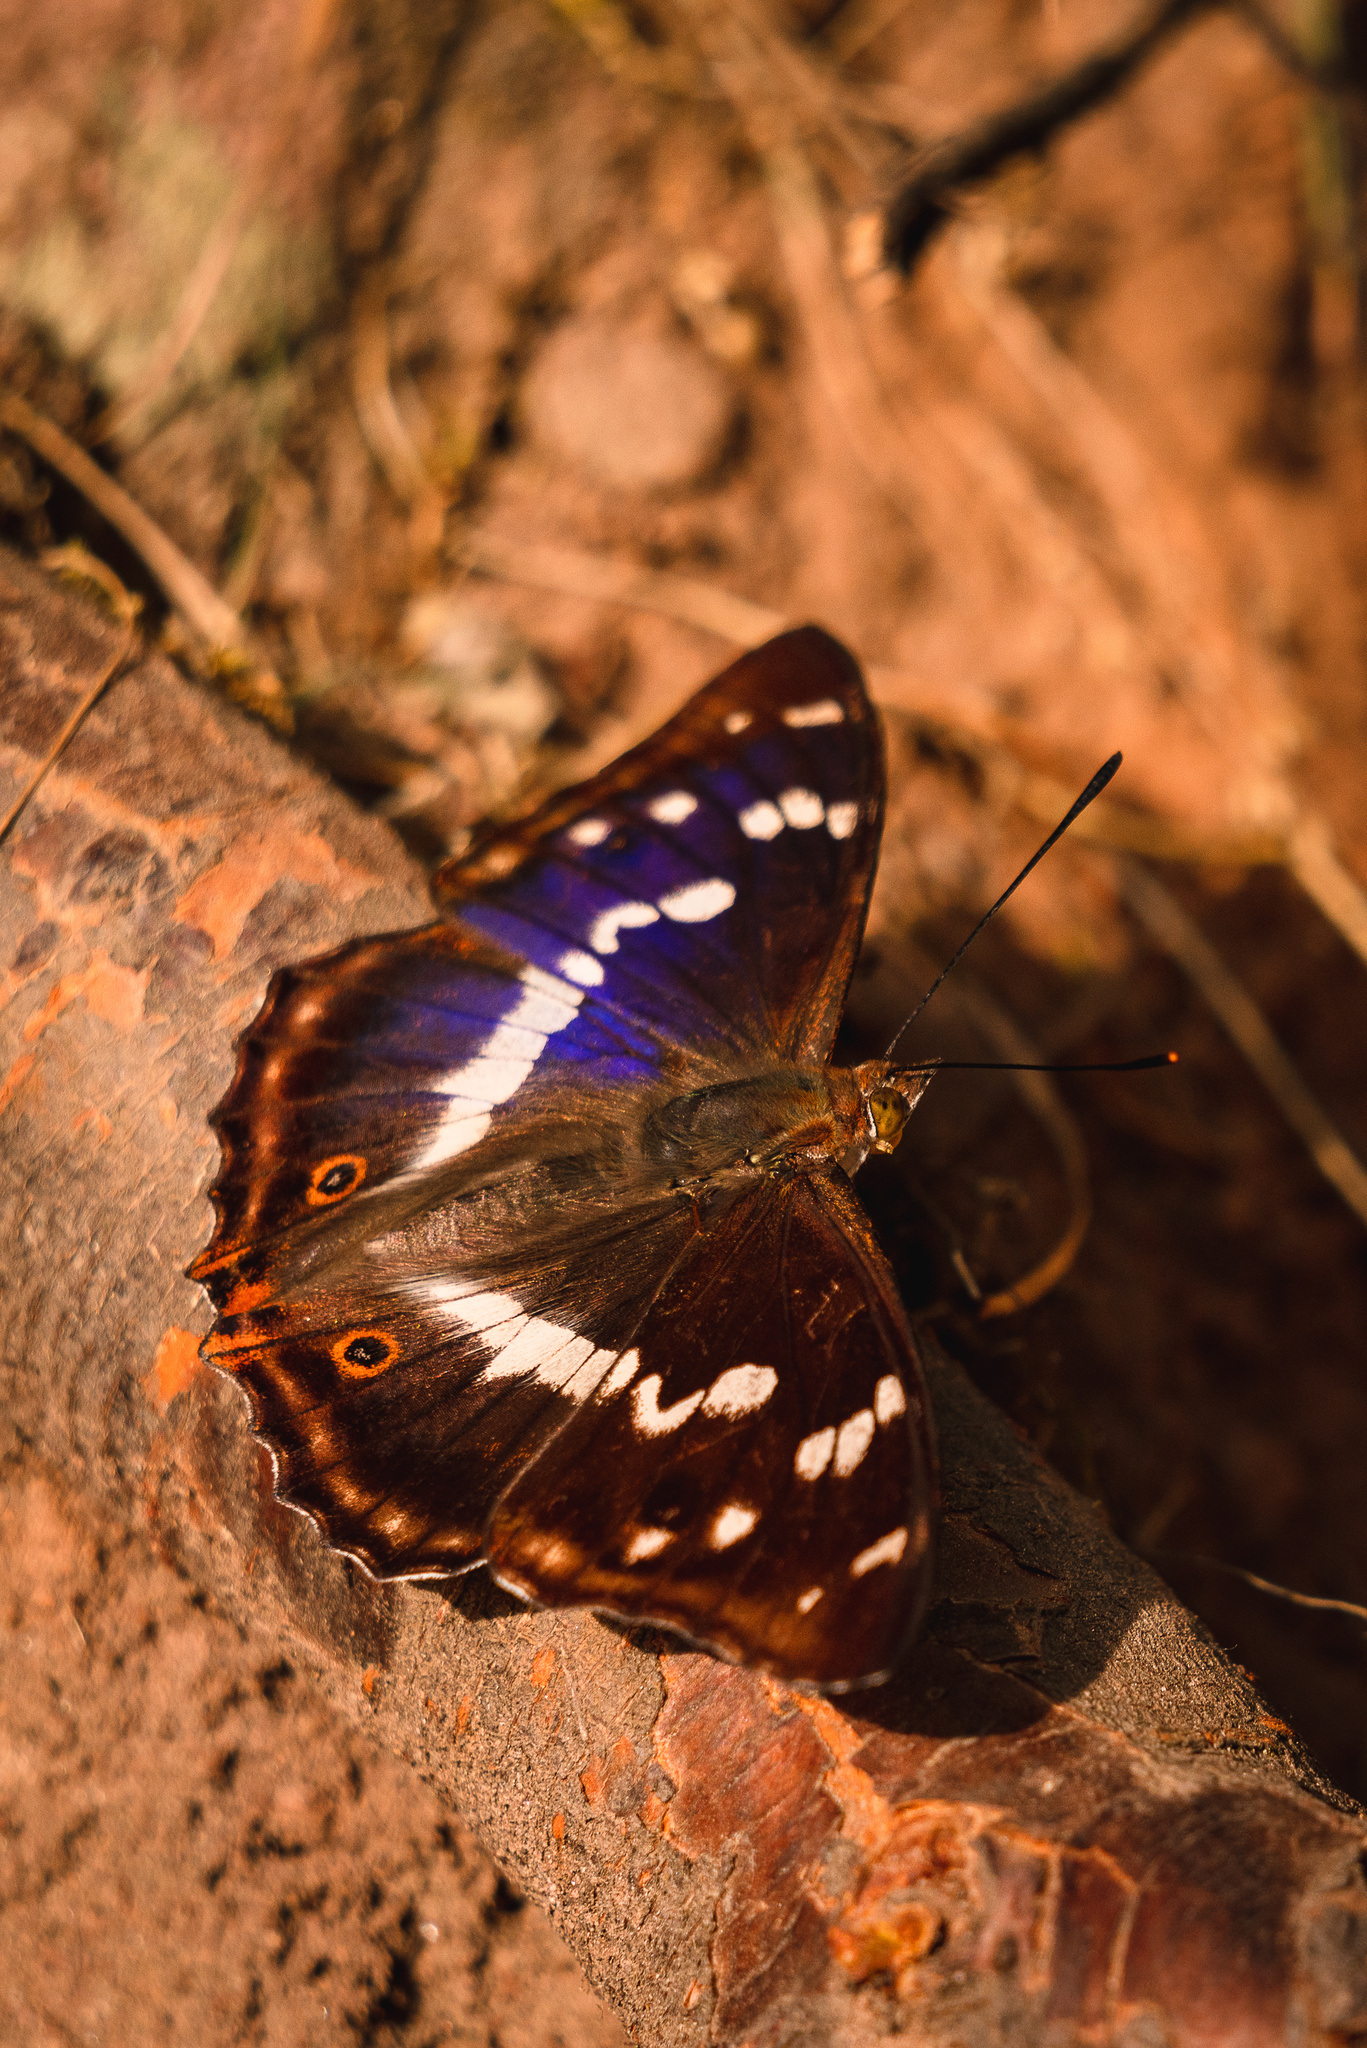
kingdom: Animalia
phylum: Arthropoda
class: Insecta
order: Lepidoptera
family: Nymphalidae
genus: Apatura
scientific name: Apatura iris
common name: Purple emperor
